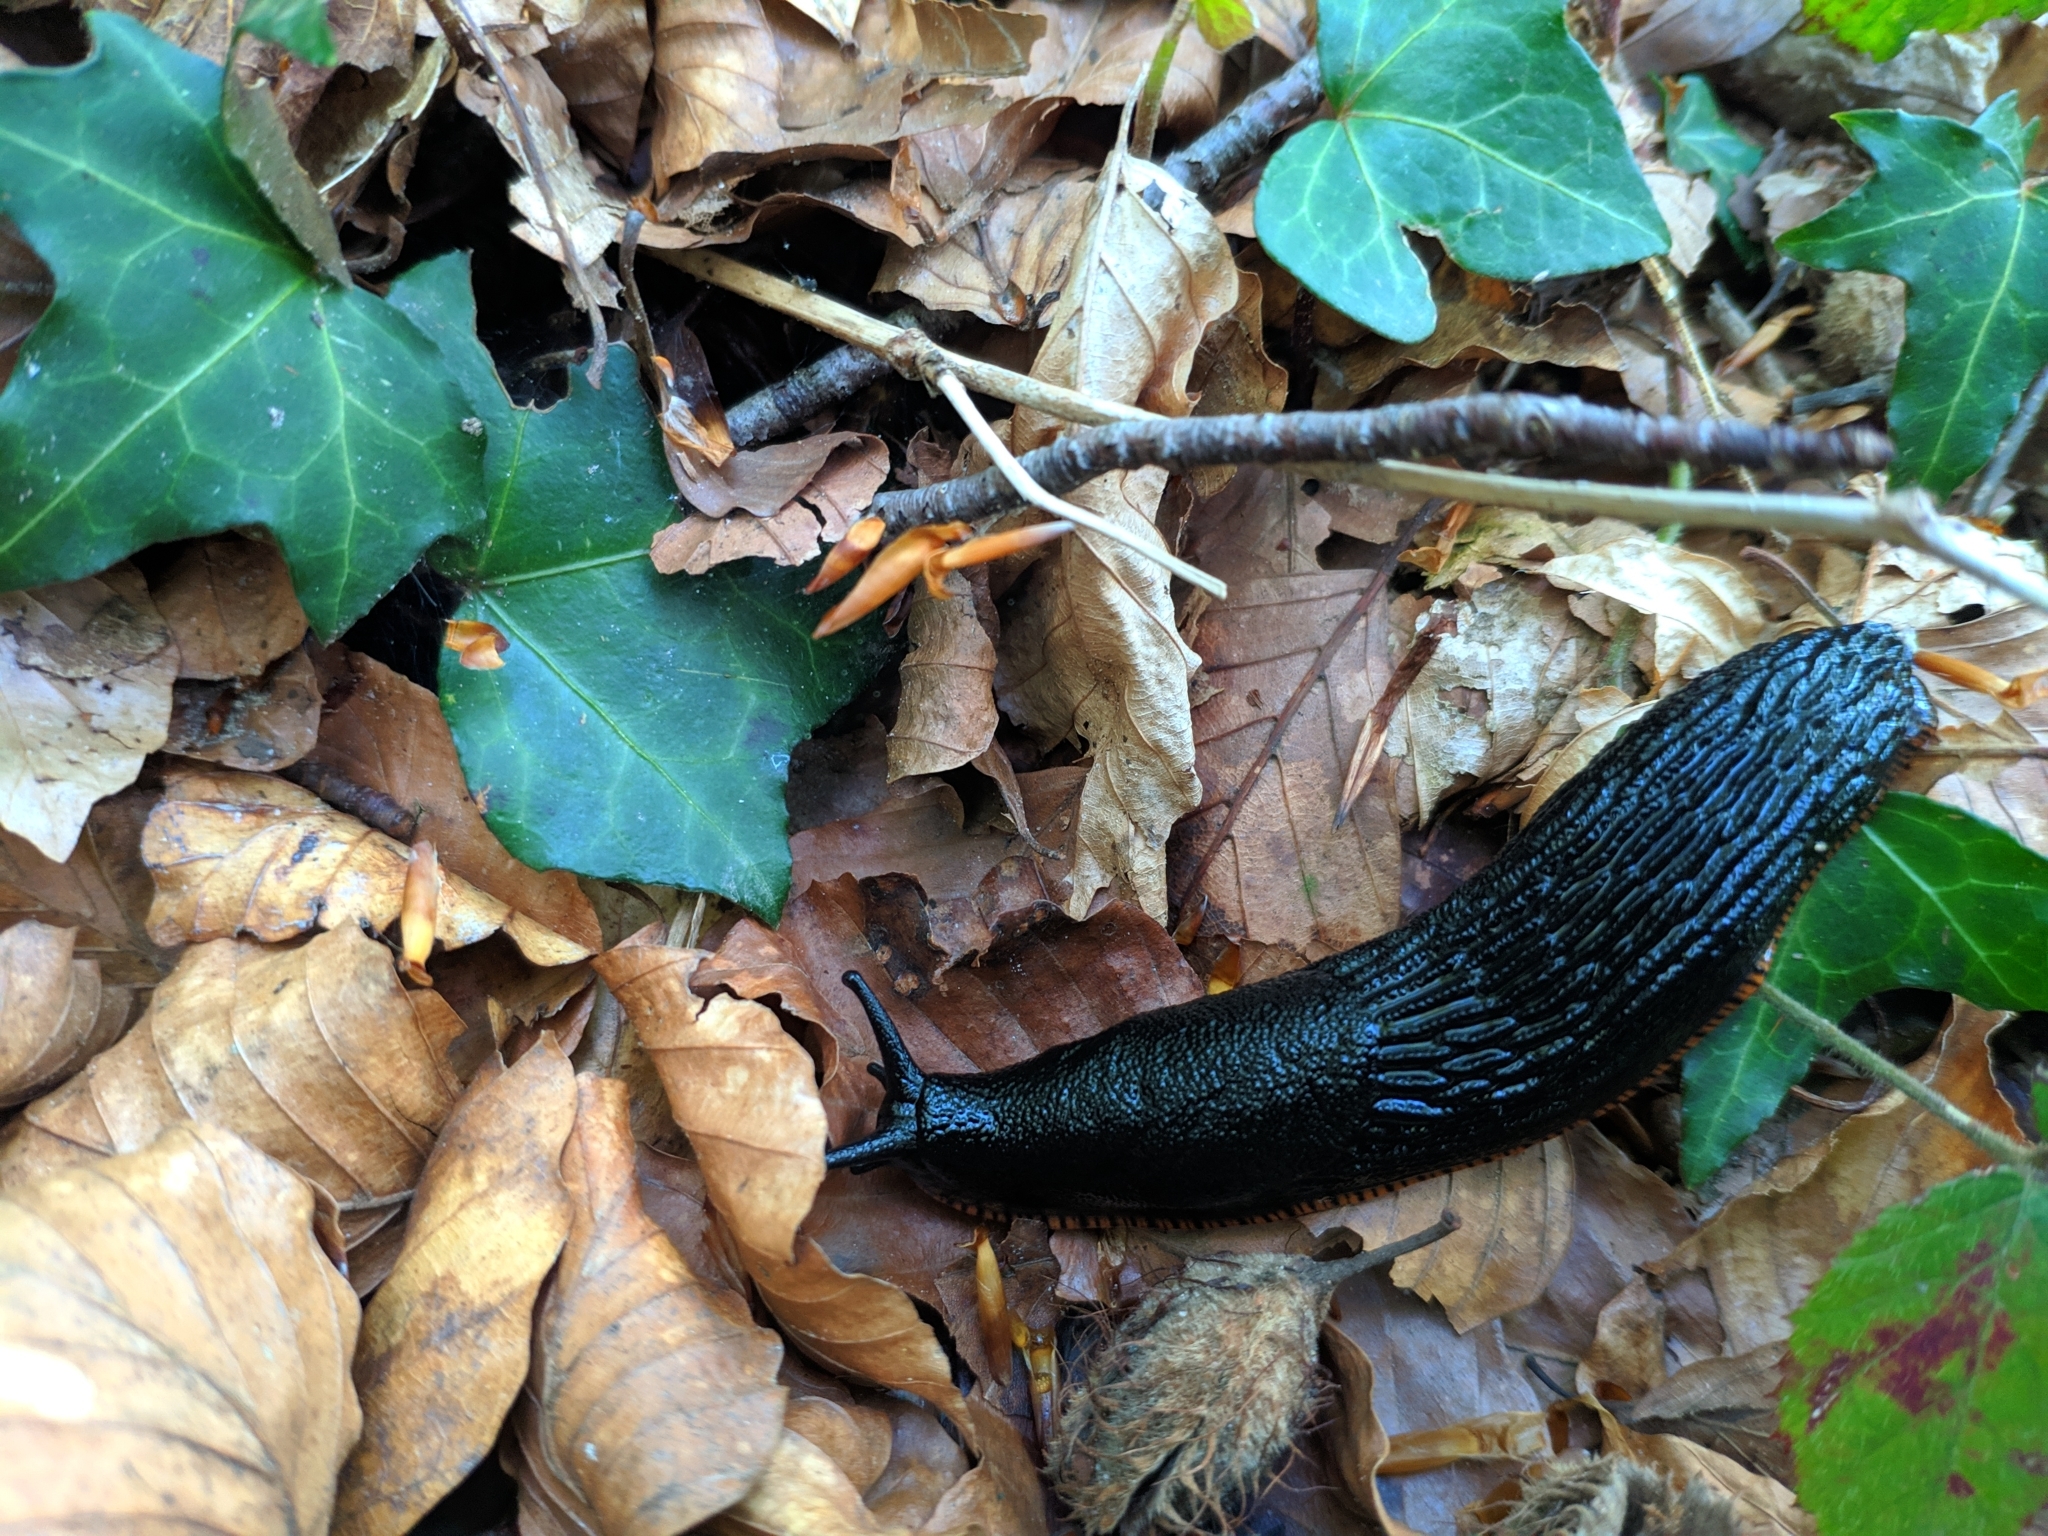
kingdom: Animalia
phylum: Mollusca
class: Gastropoda
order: Stylommatophora
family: Arionidae
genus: Arion
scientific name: Arion ater
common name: Black arion
